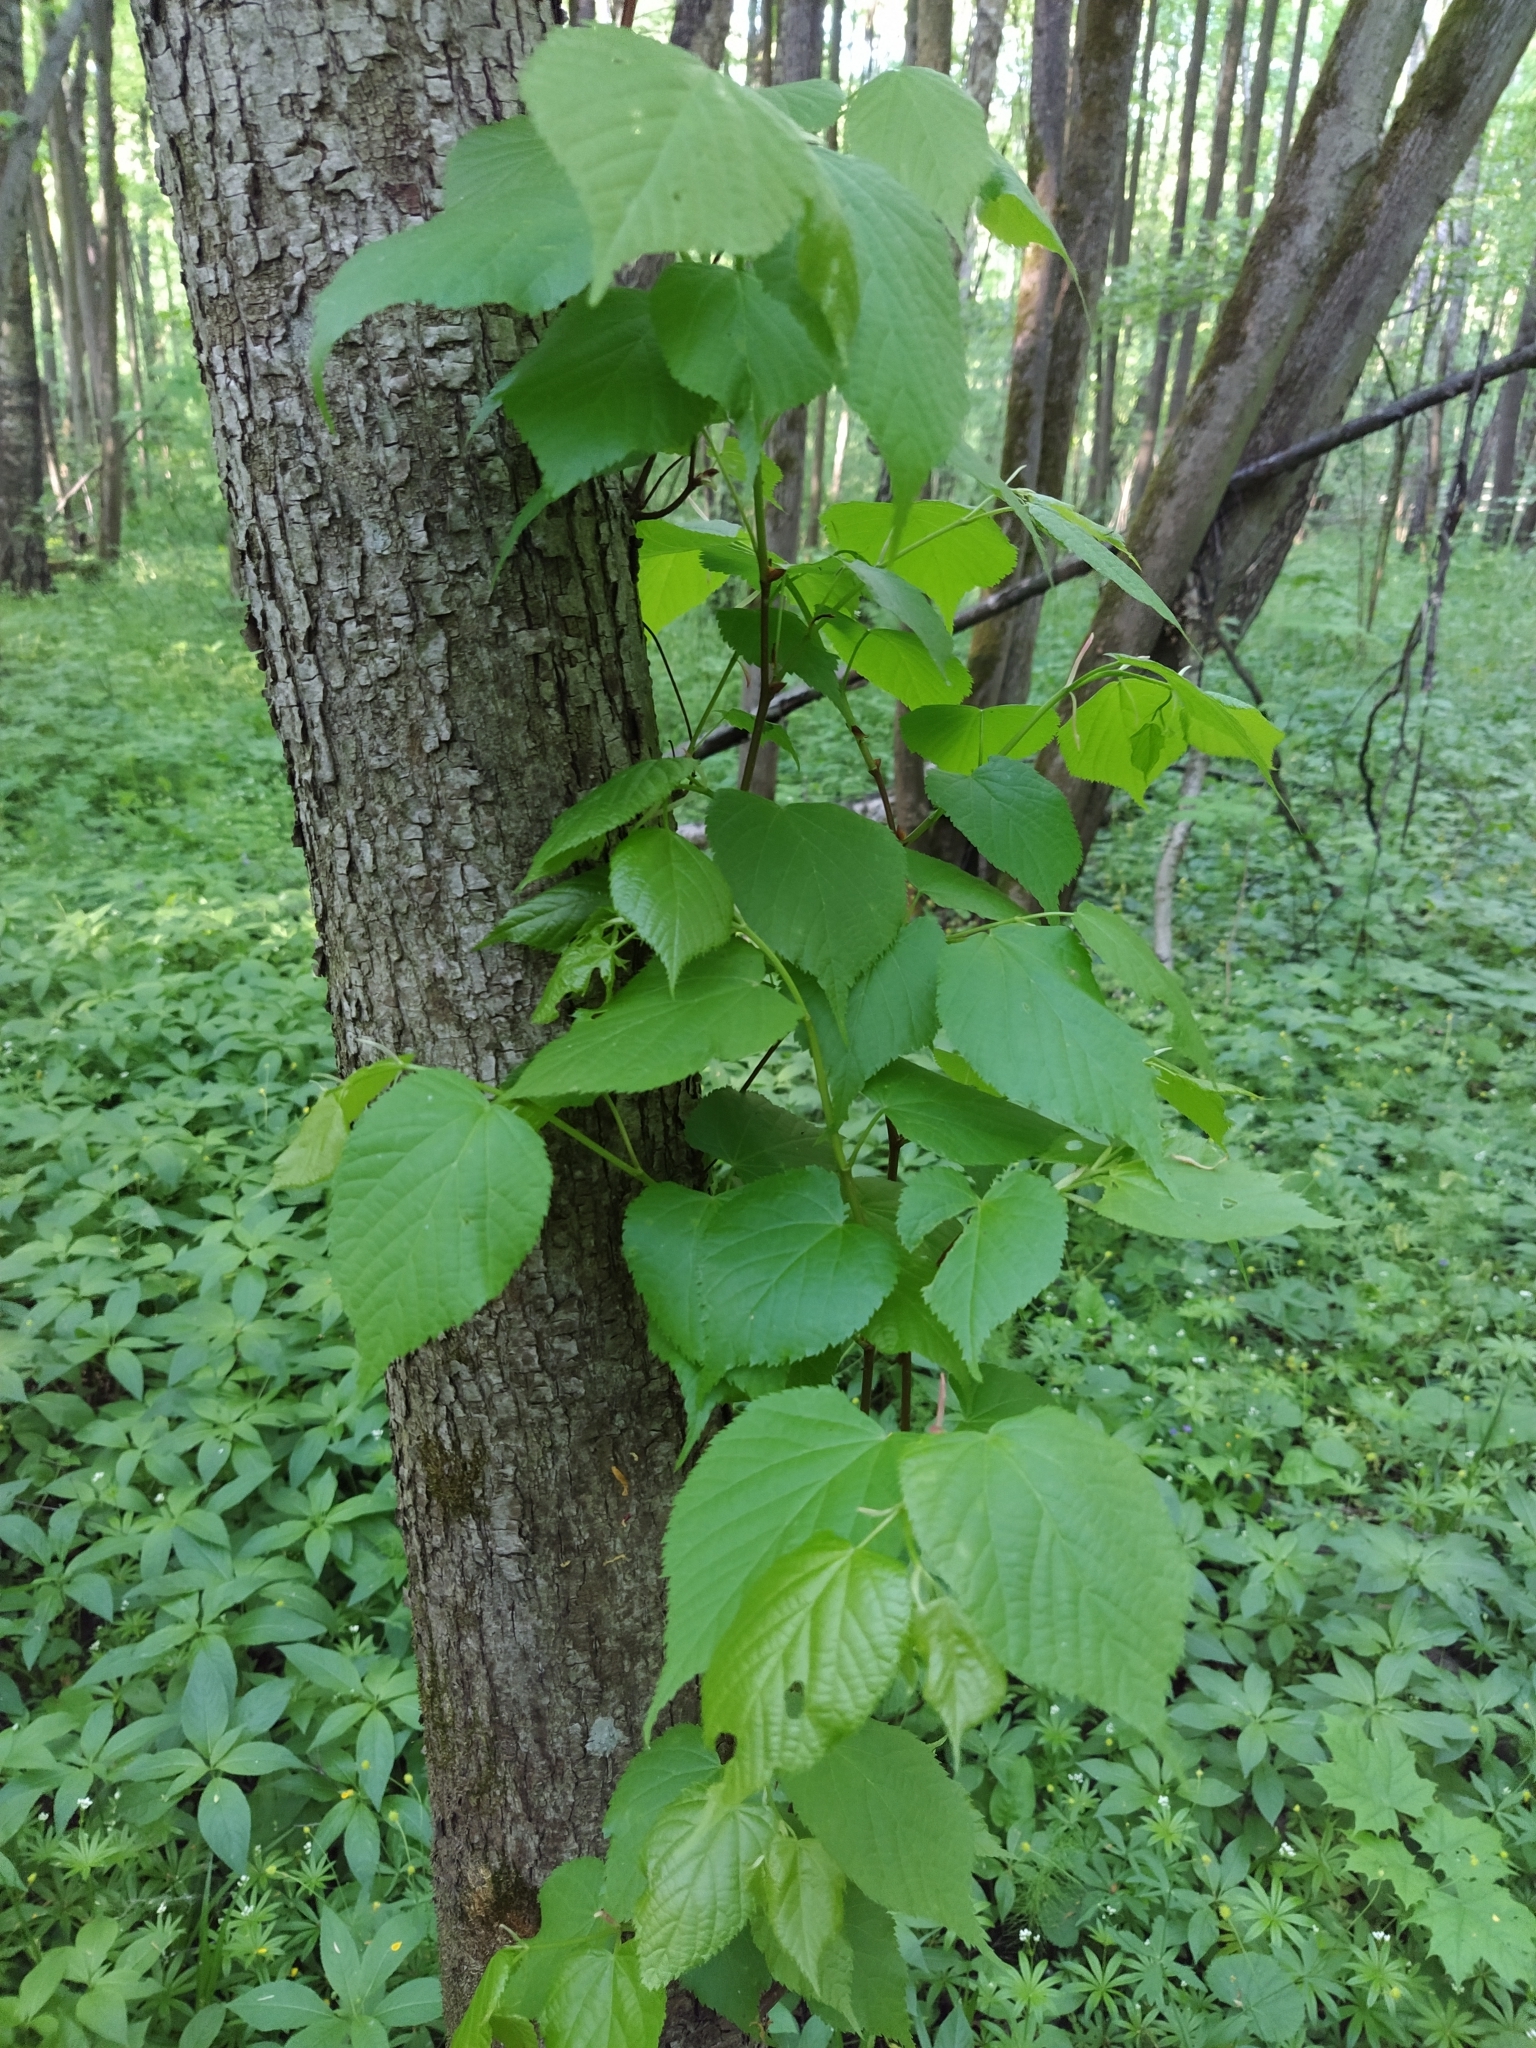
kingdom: Plantae
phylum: Tracheophyta
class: Magnoliopsida
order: Malvales
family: Malvaceae
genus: Tilia
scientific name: Tilia cordata
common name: Small-leaved lime
